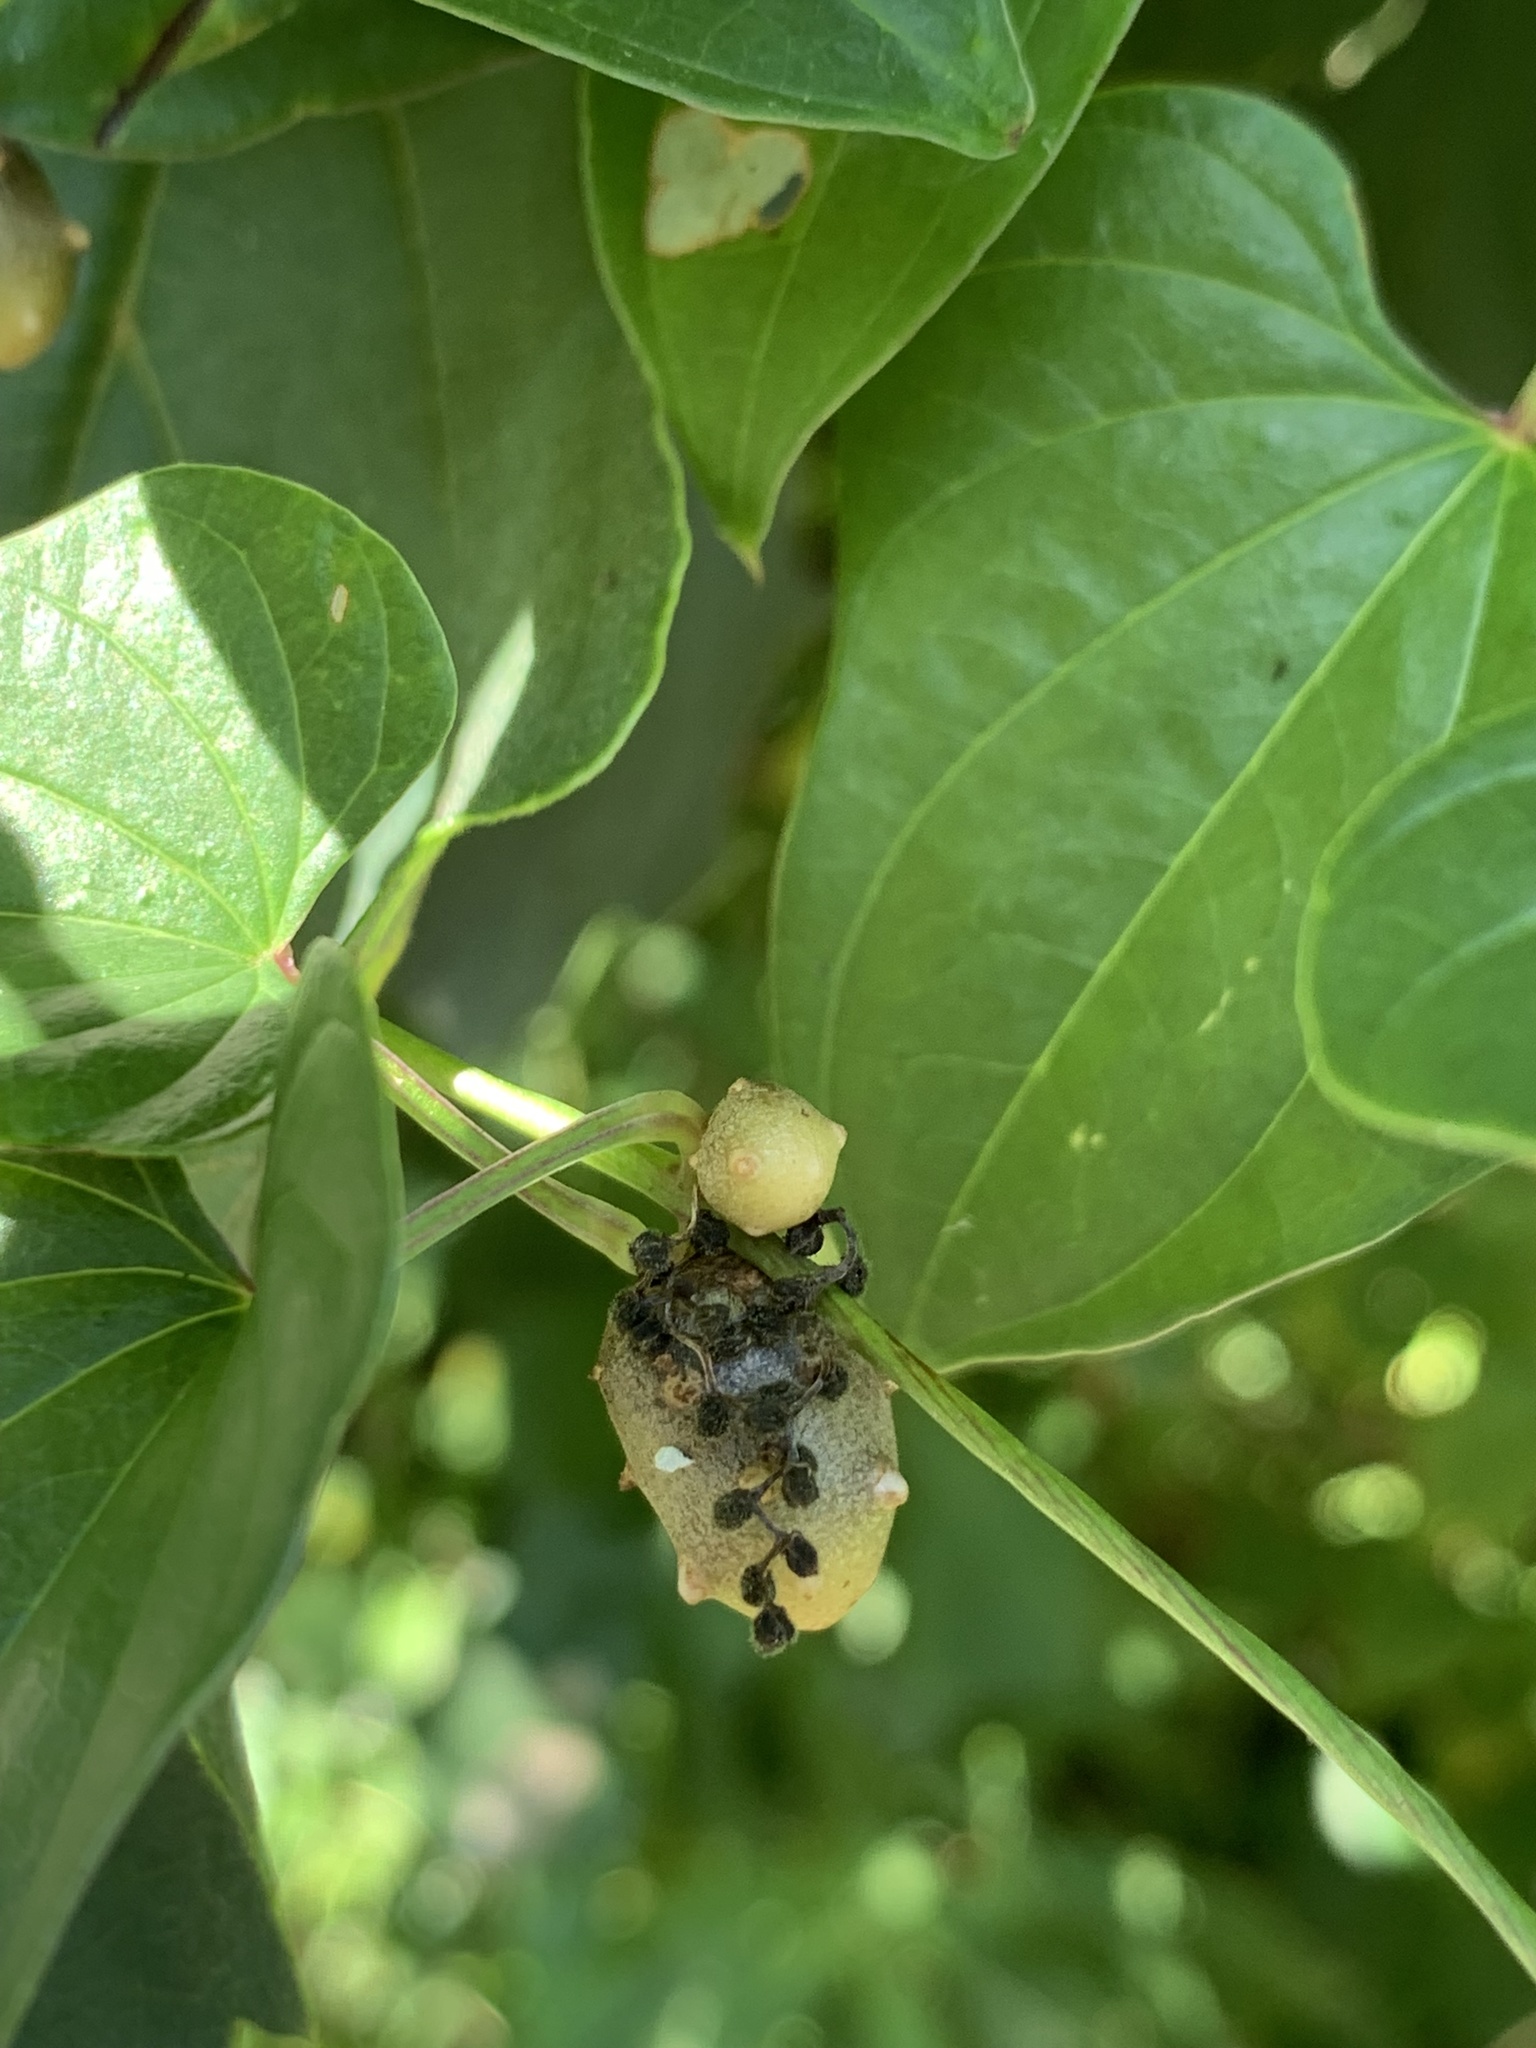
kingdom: Plantae
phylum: Tracheophyta
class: Liliopsida
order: Dioscoreales
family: Dioscoreaceae
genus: Dioscorea
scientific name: Dioscorea polystachya
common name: Chinese yam
